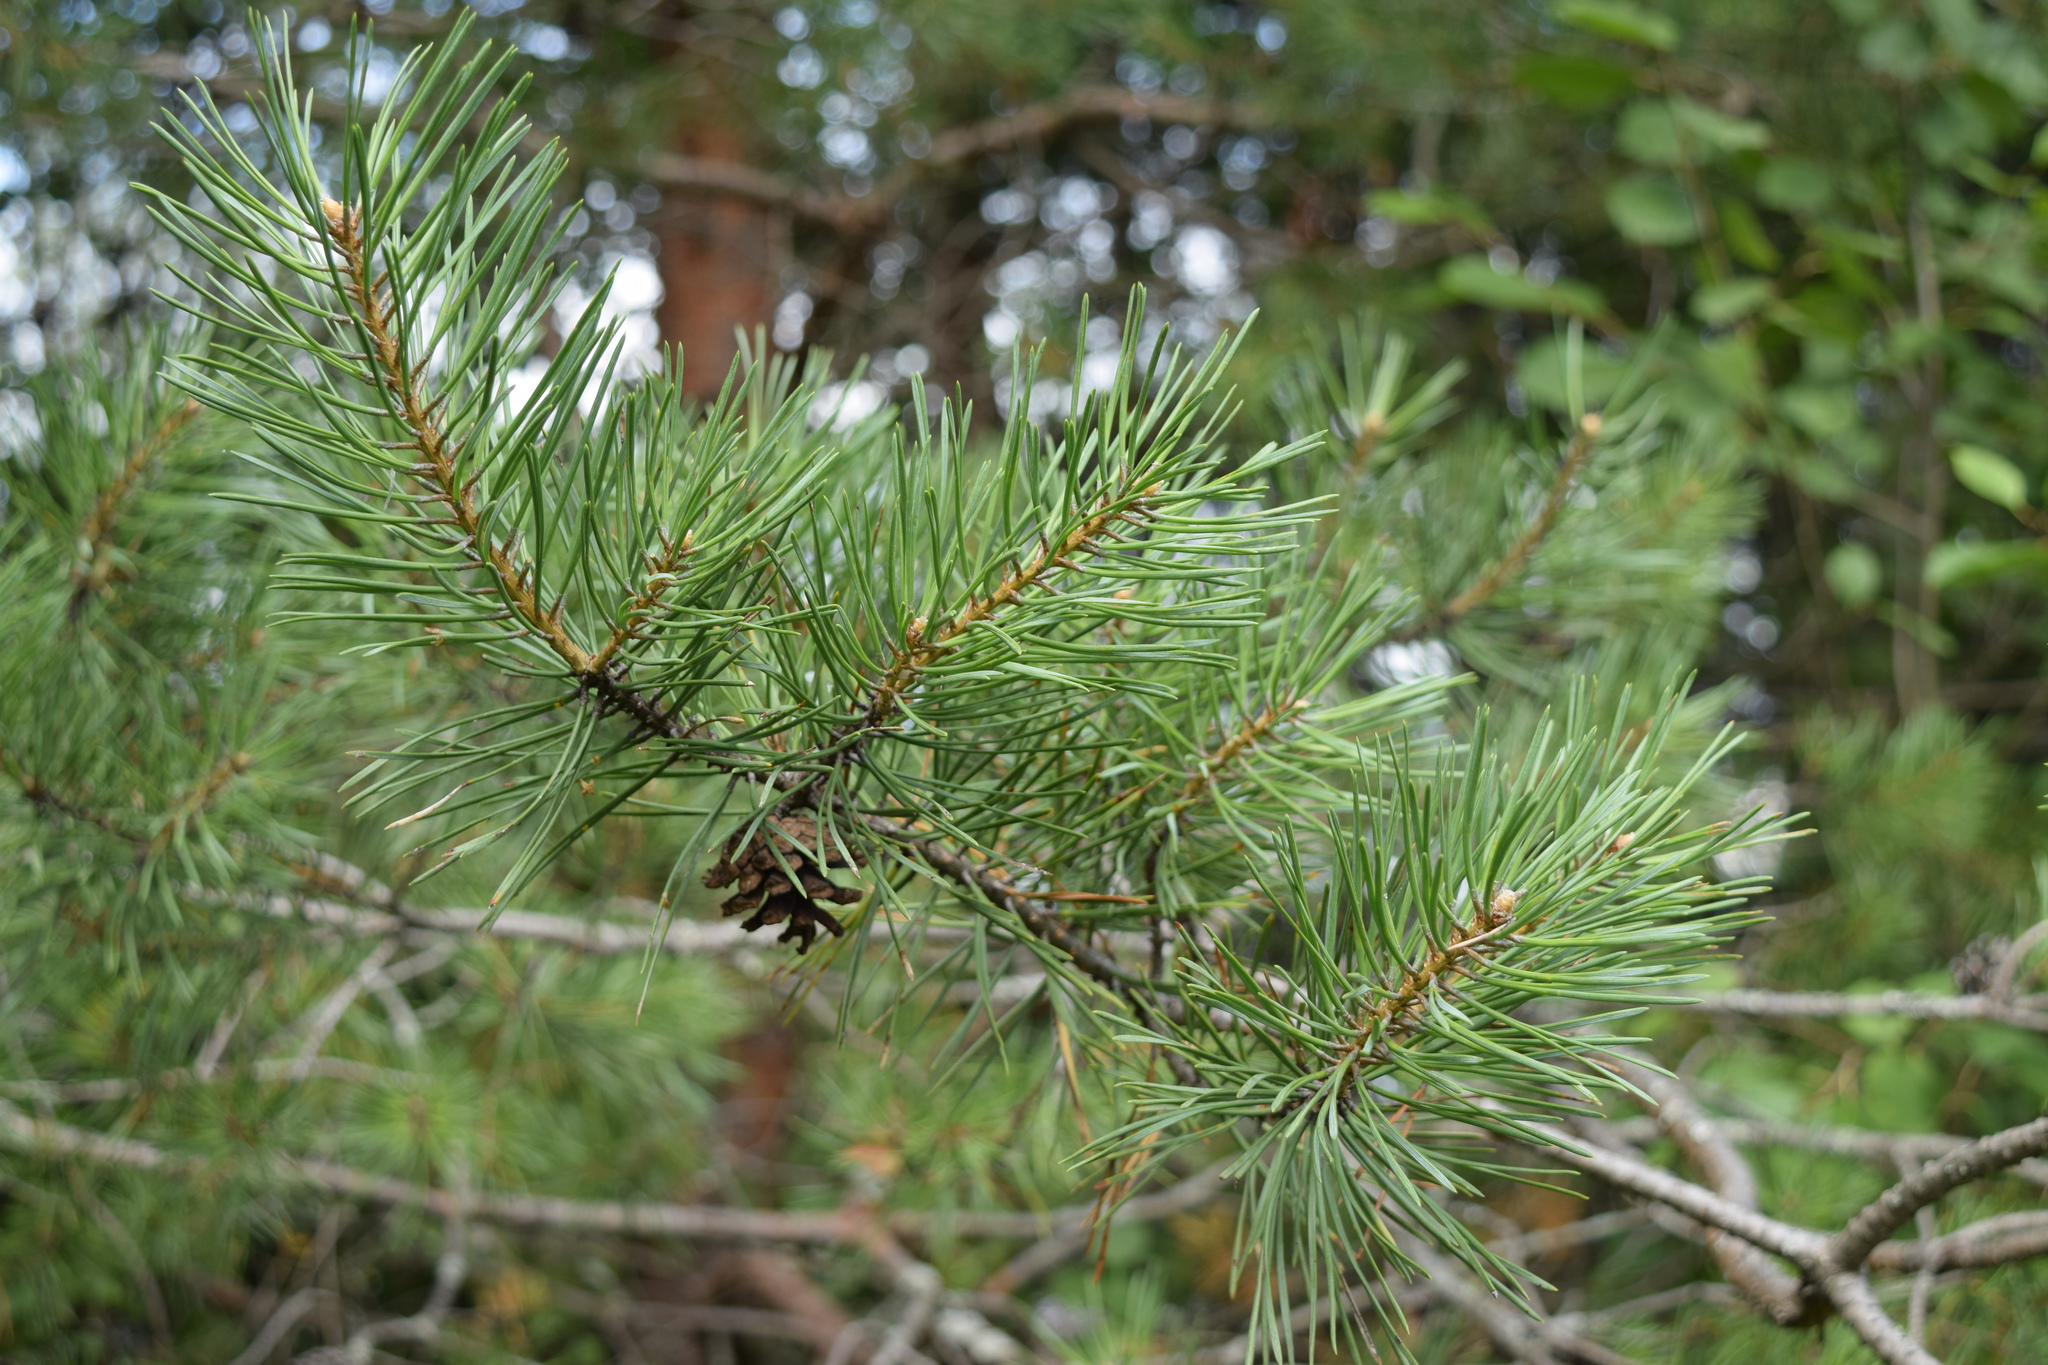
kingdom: Plantae
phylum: Tracheophyta
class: Pinopsida
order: Pinales
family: Pinaceae
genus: Pinus
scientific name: Pinus sylvestris
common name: Scots pine
